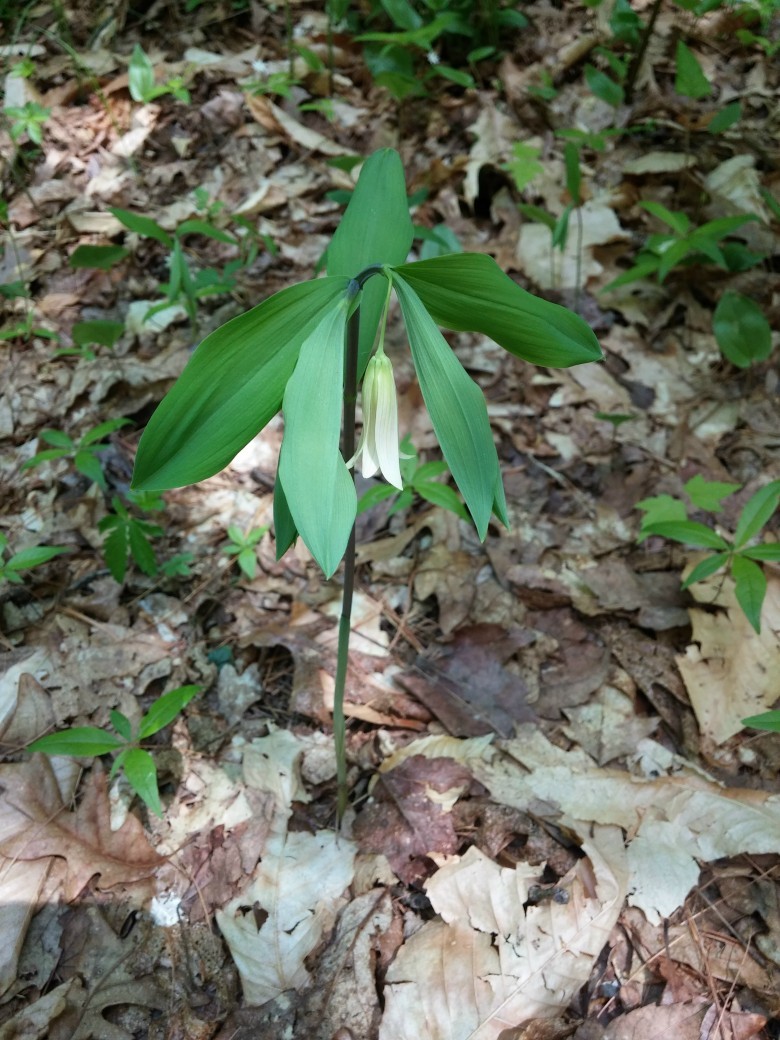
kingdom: Plantae
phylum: Tracheophyta
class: Liliopsida
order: Liliales
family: Colchicaceae
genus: Uvularia
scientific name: Uvularia sessilifolia
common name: Straw-lily
